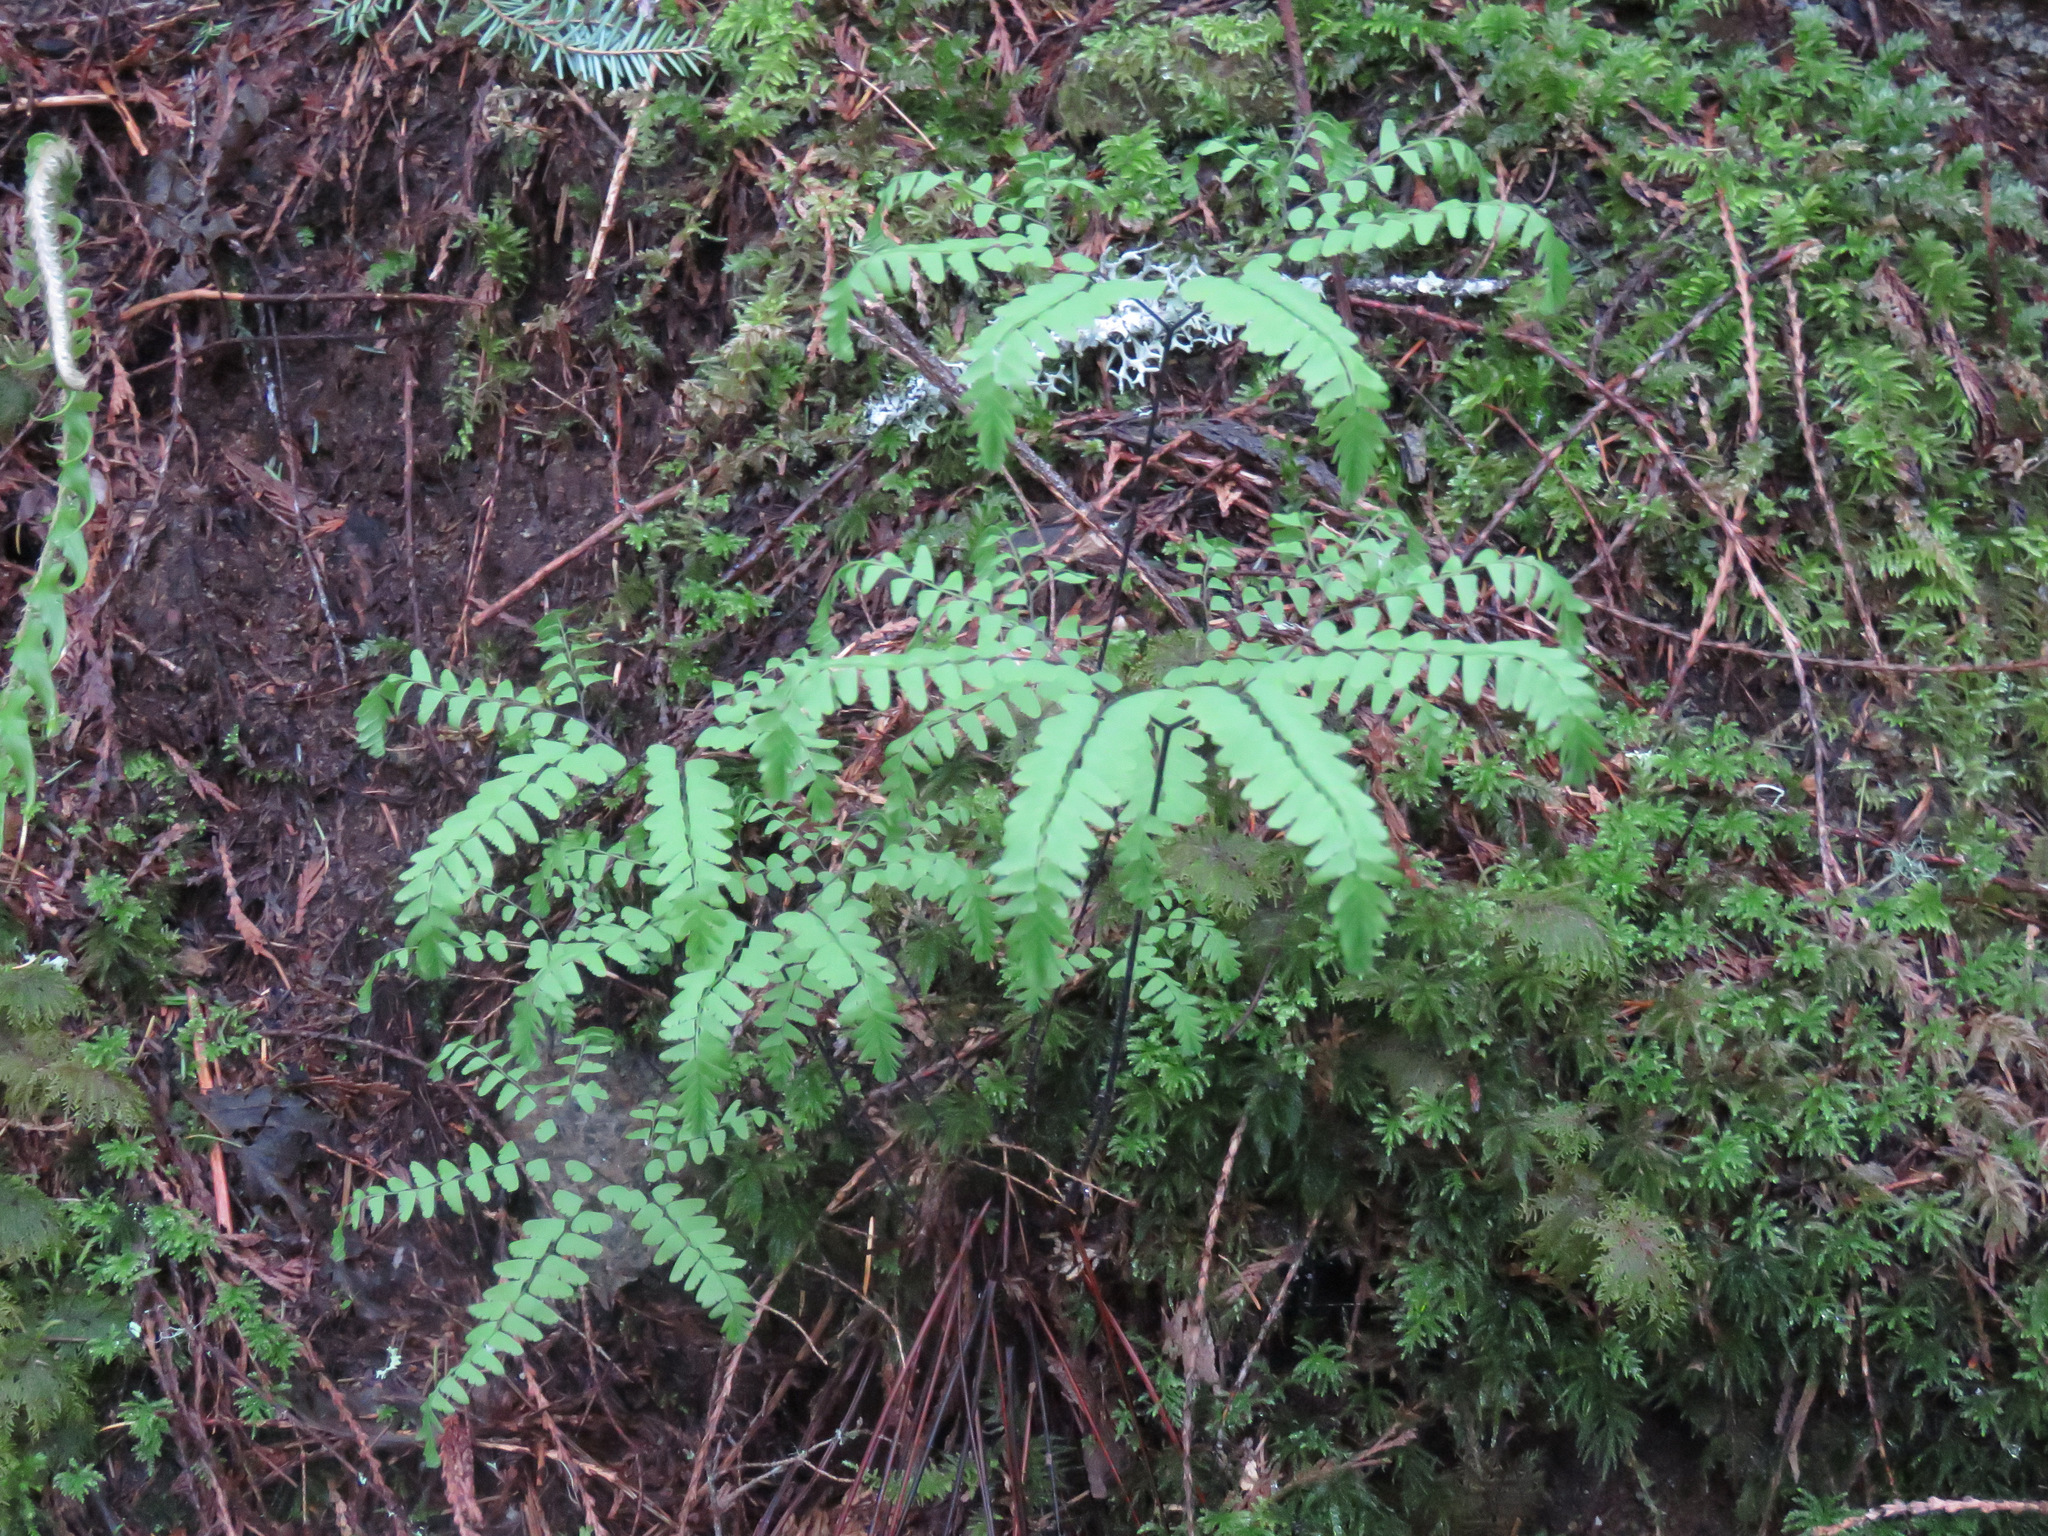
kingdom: Plantae
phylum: Tracheophyta
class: Polypodiopsida
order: Polypodiales
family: Pteridaceae
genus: Adiantum
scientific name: Adiantum aleuticum
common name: Aleutian maidenhair fern
